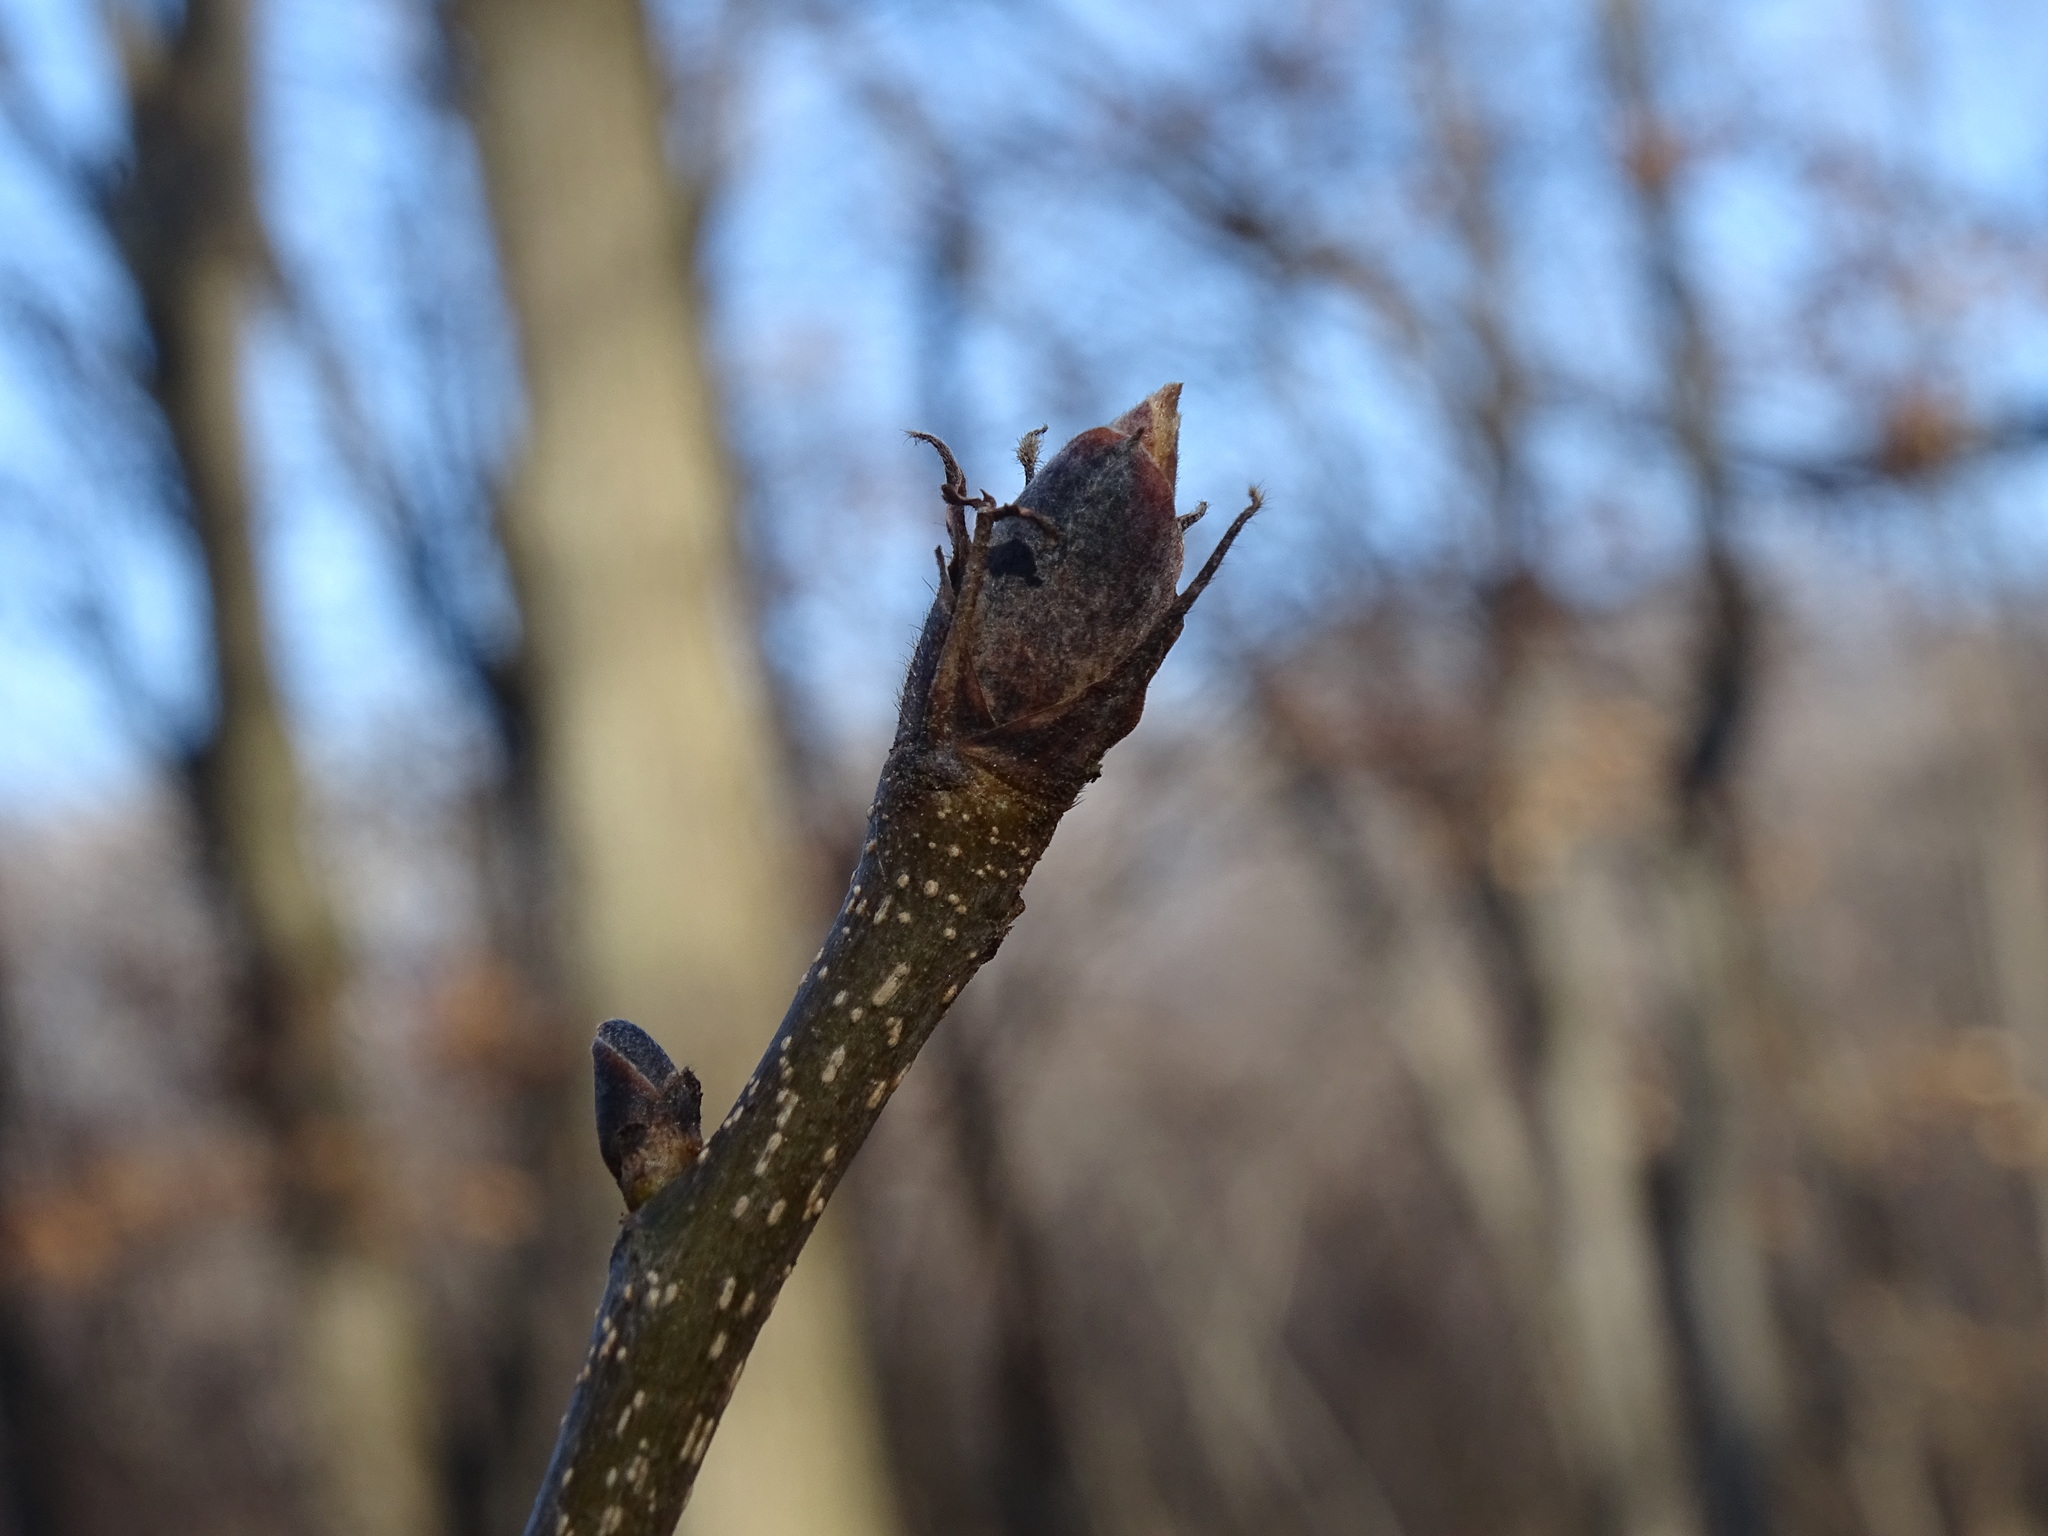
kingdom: Plantae
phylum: Tracheophyta
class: Magnoliopsida
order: Fagales
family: Juglandaceae
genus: Carya
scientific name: Carya ovata
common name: Shagbark hickory
